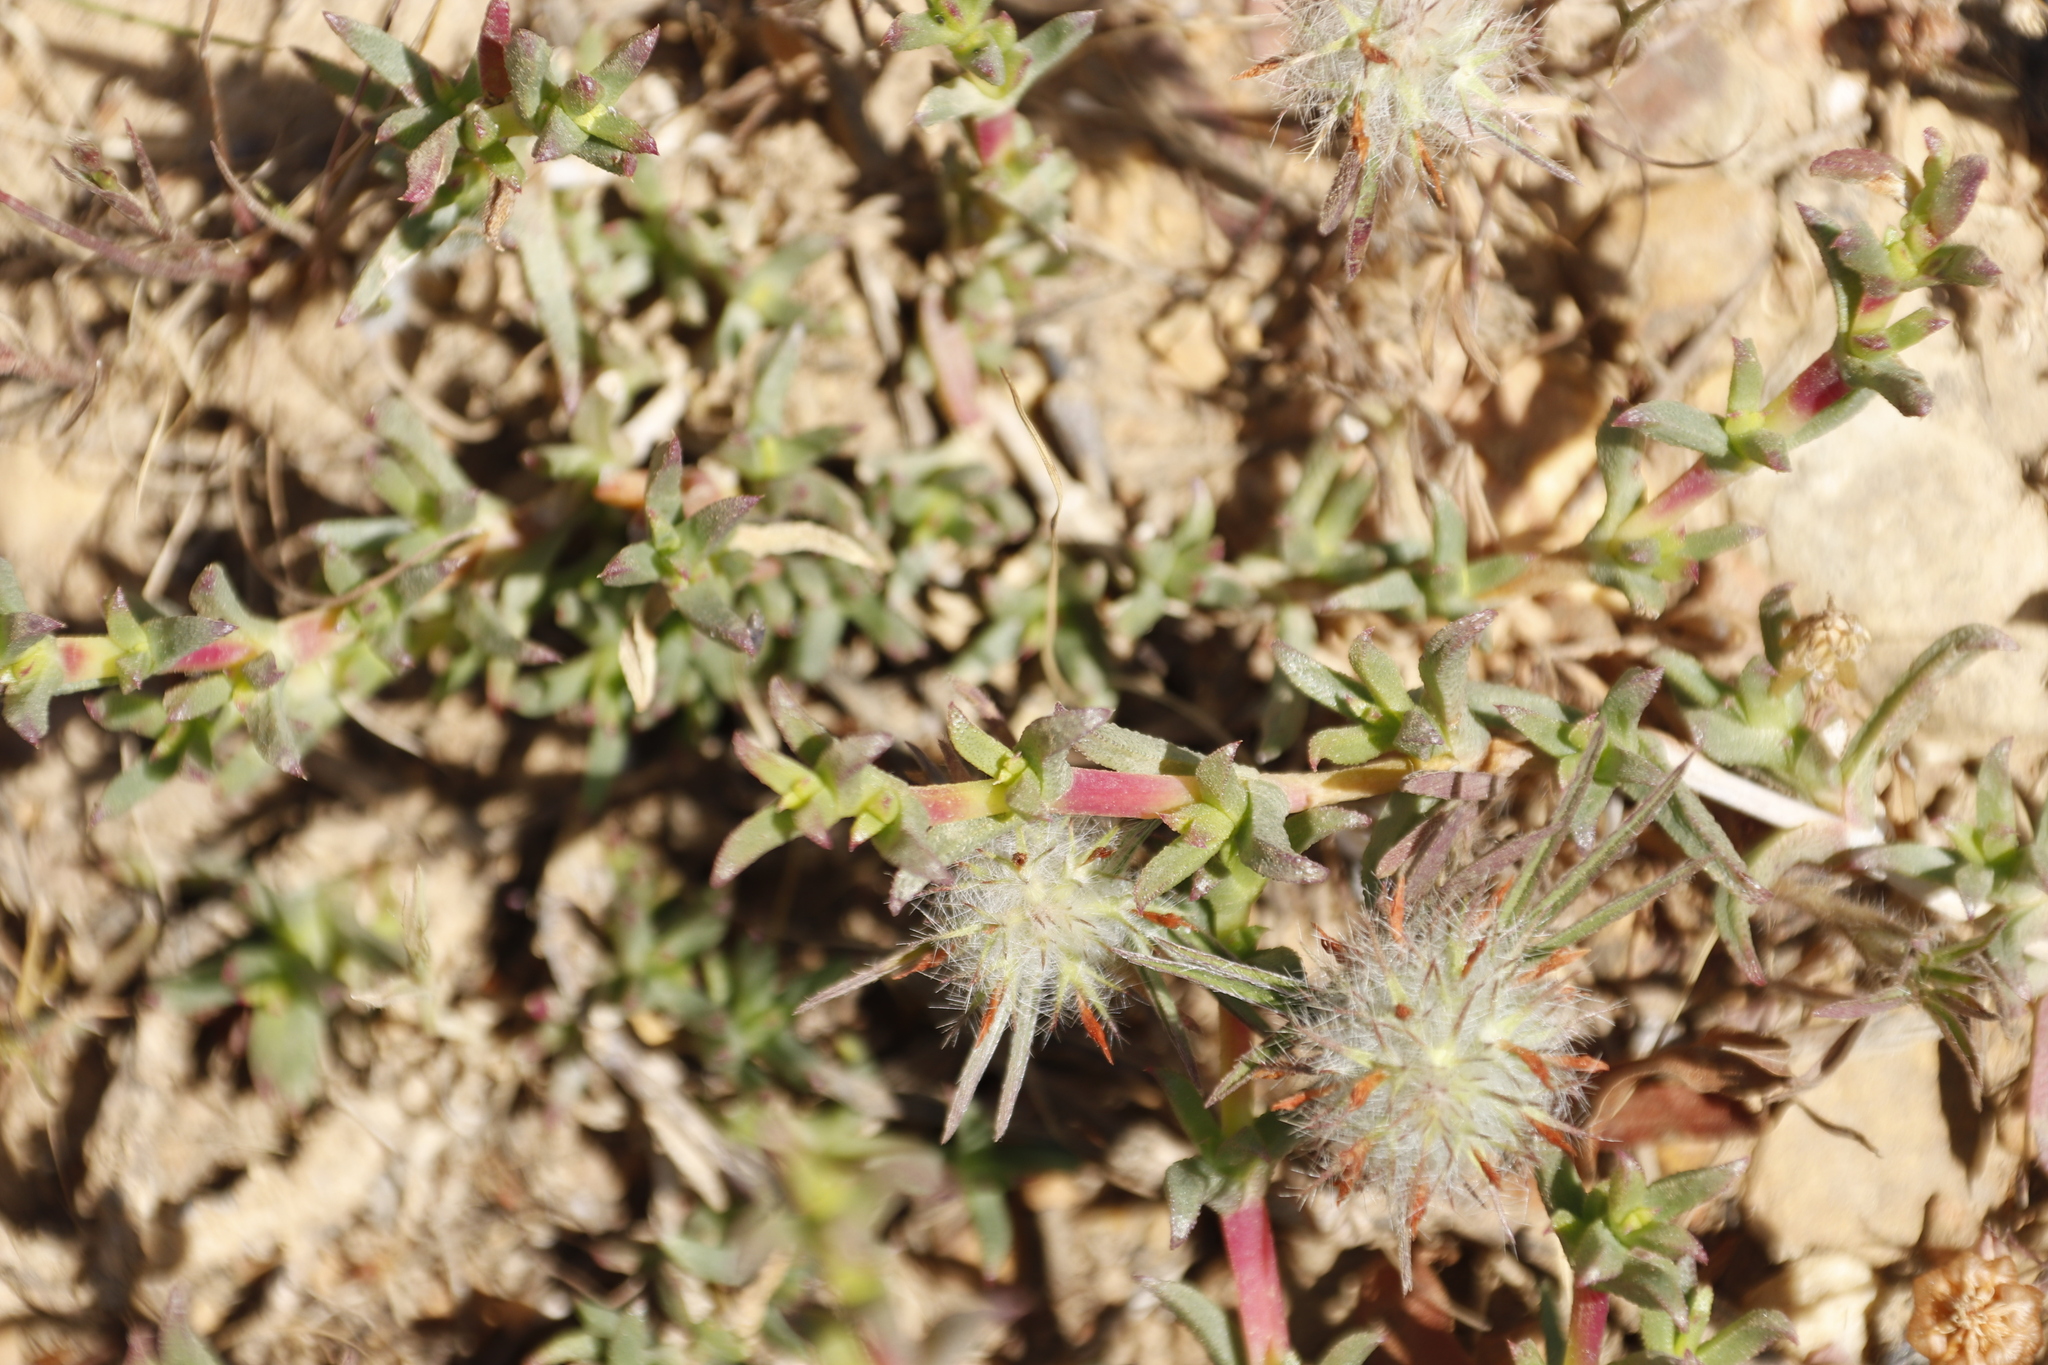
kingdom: Plantae
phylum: Tracheophyta
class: Magnoliopsida
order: Fabales
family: Fabaceae
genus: Trifolium
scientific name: Trifolium angustifolium
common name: Narrow clover
